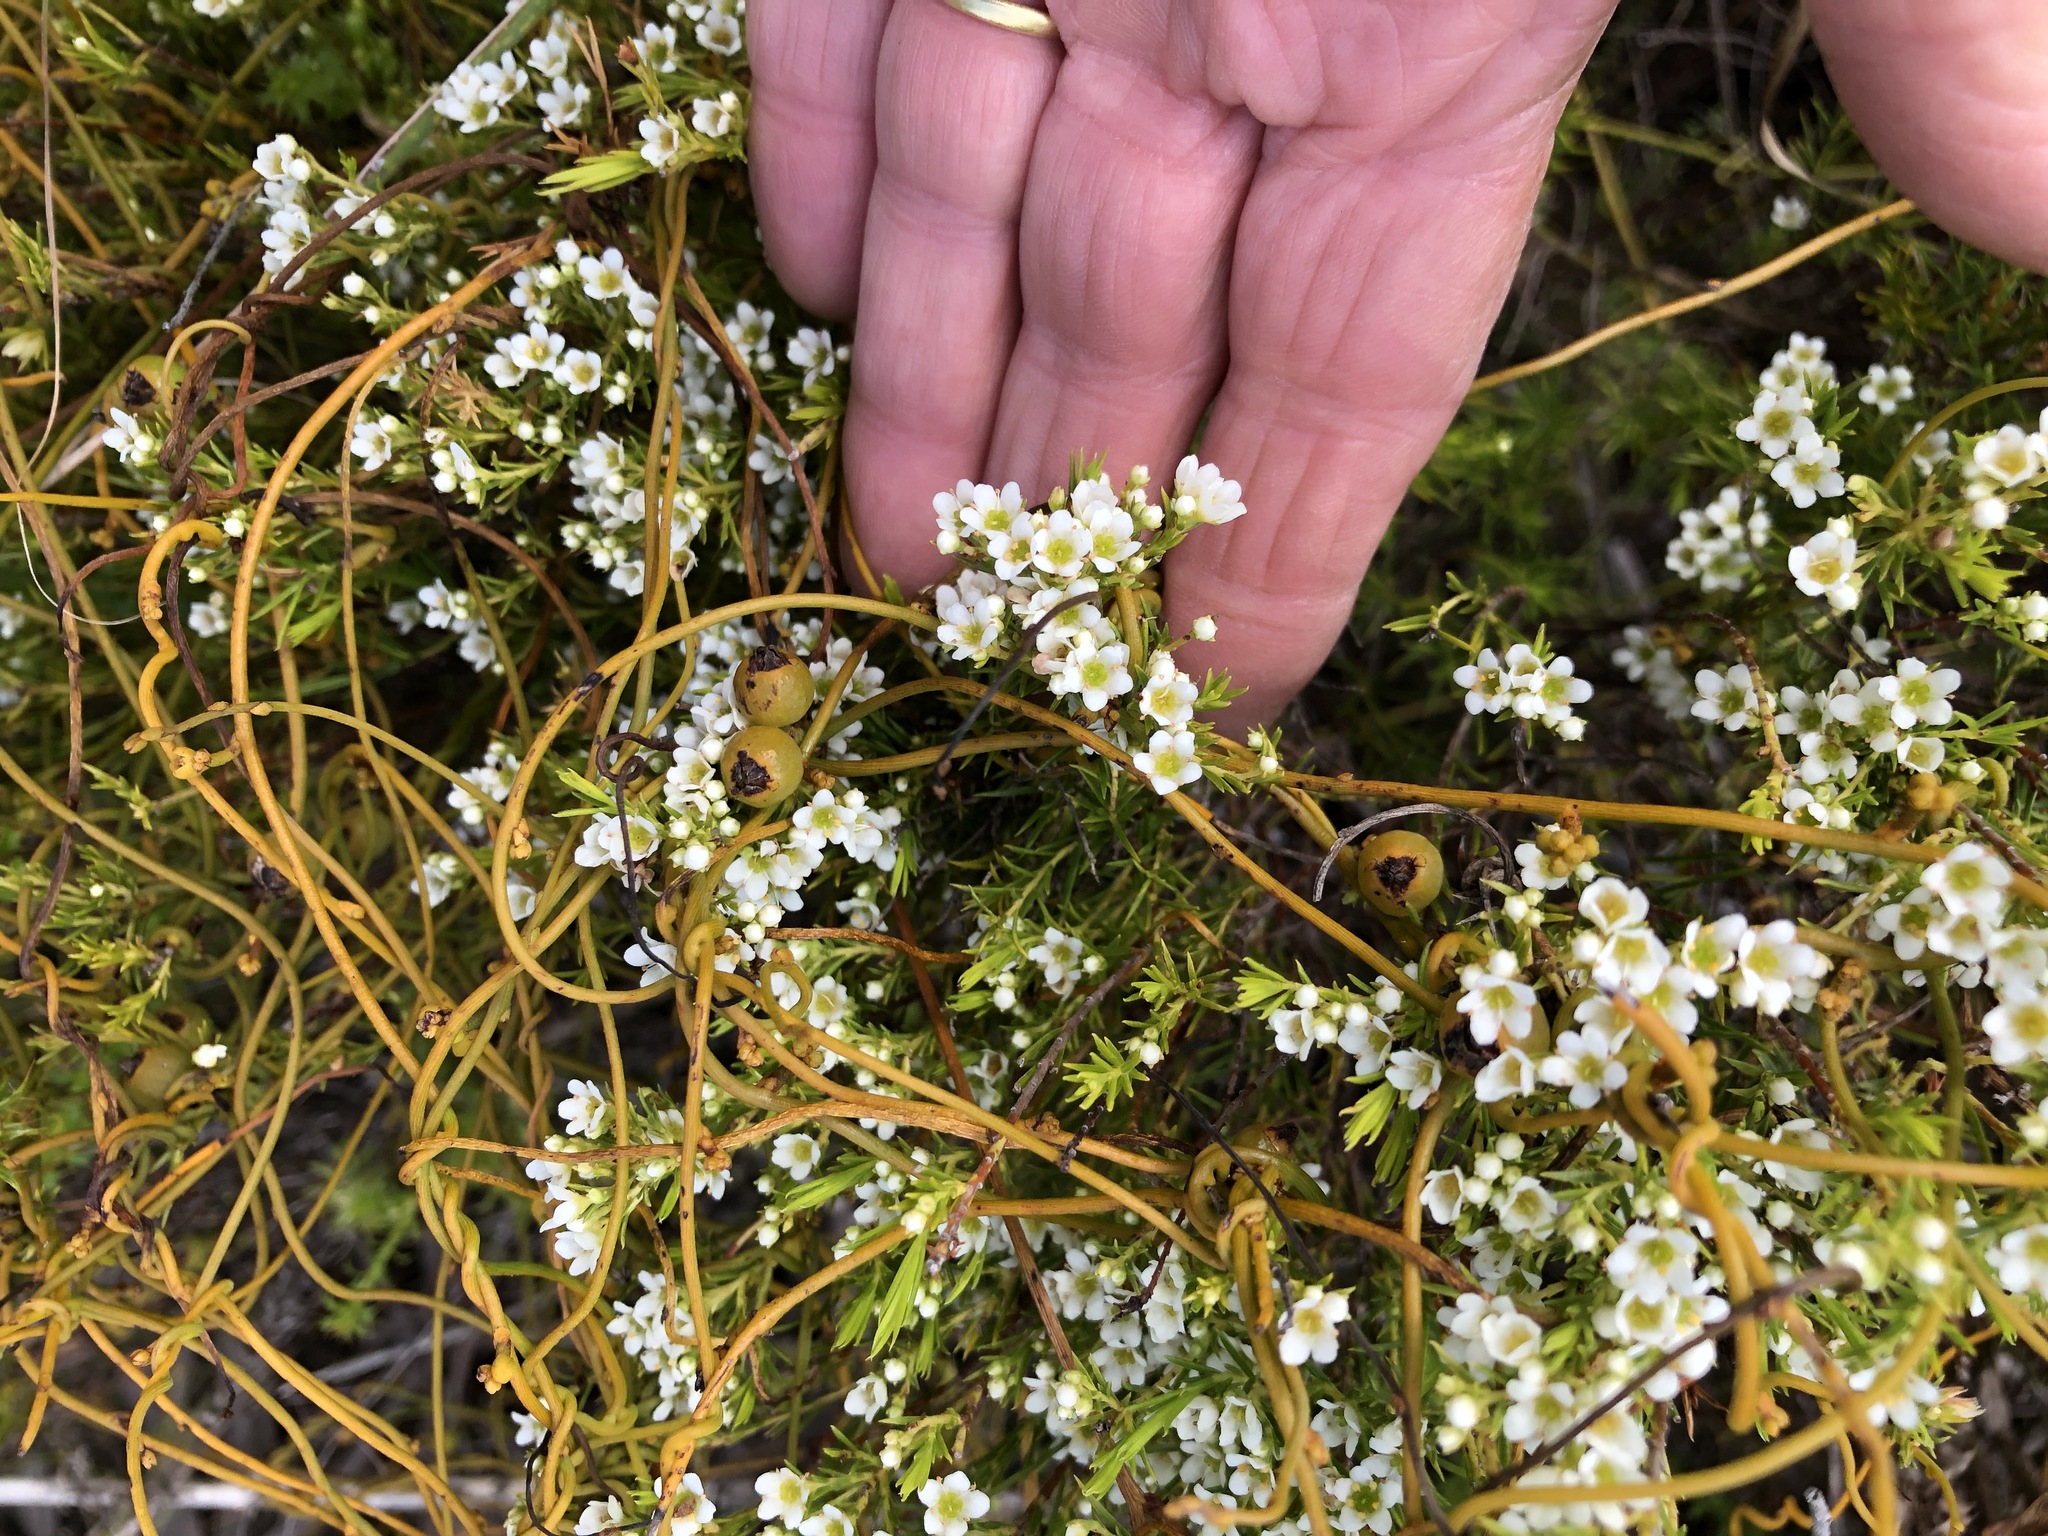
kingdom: Plantae
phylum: Tracheophyta
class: Magnoliopsida
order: Sapindales
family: Rutaceae
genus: Diosma
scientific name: Diosma hirsuta
